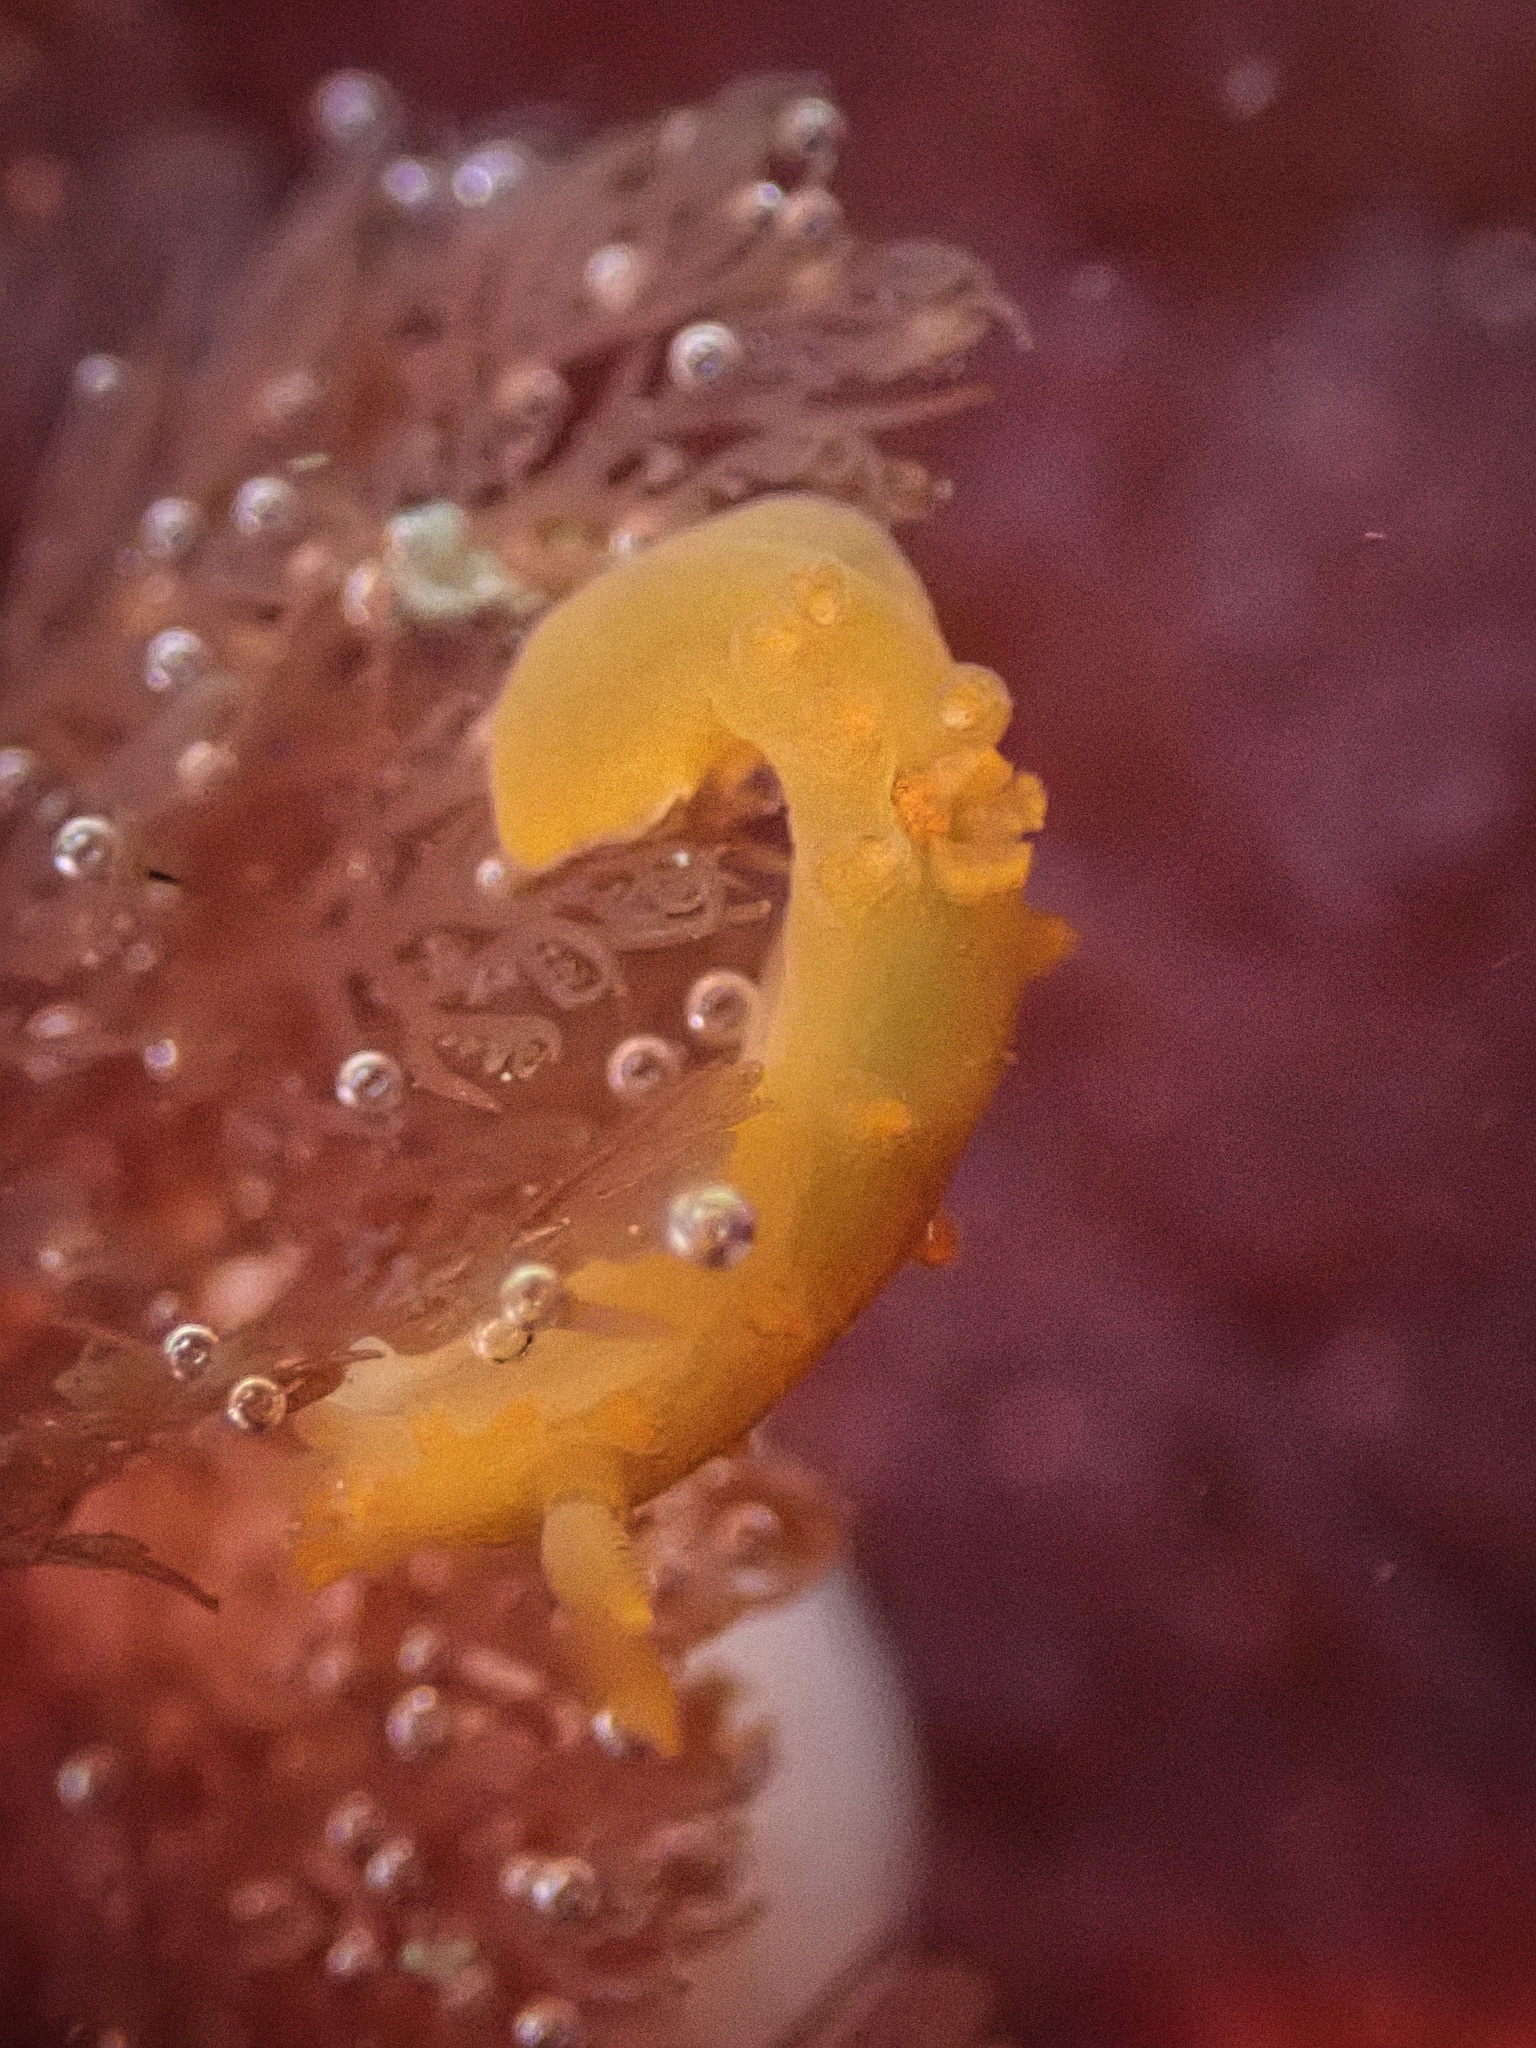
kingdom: Animalia
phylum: Mollusca
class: Gastropoda
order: Nudibranchia
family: Polyceridae
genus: Triopha
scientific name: Triopha maculata
